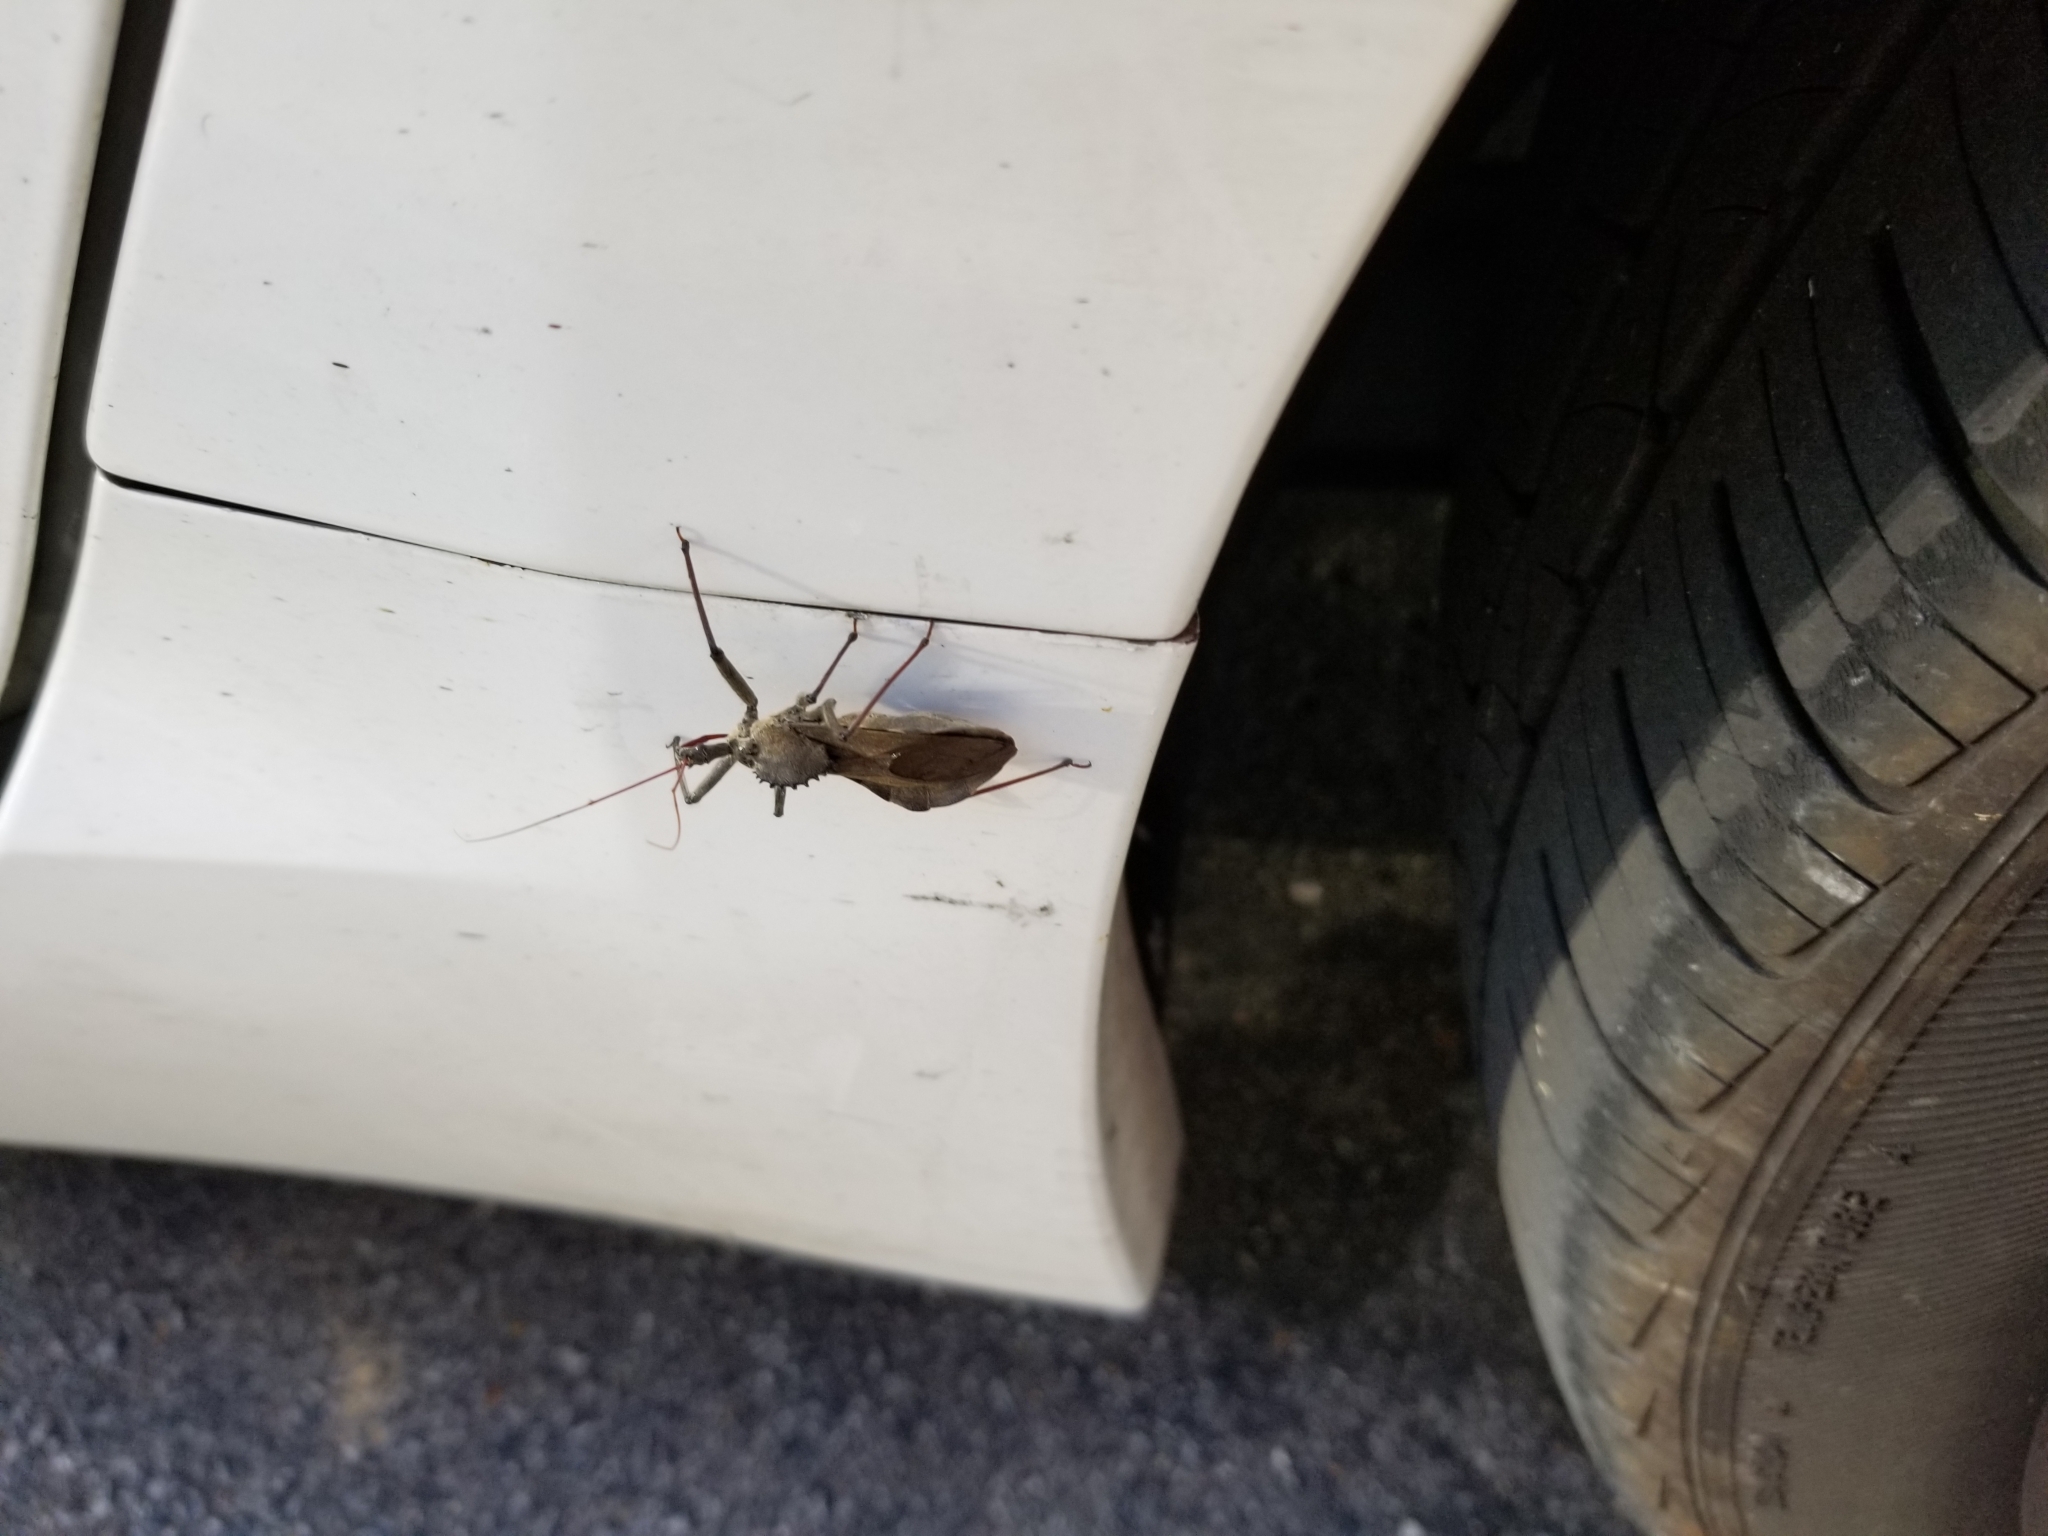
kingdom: Animalia
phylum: Arthropoda
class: Insecta
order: Hemiptera
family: Reduviidae
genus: Arilus
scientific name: Arilus cristatus
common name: North american wheel bug
